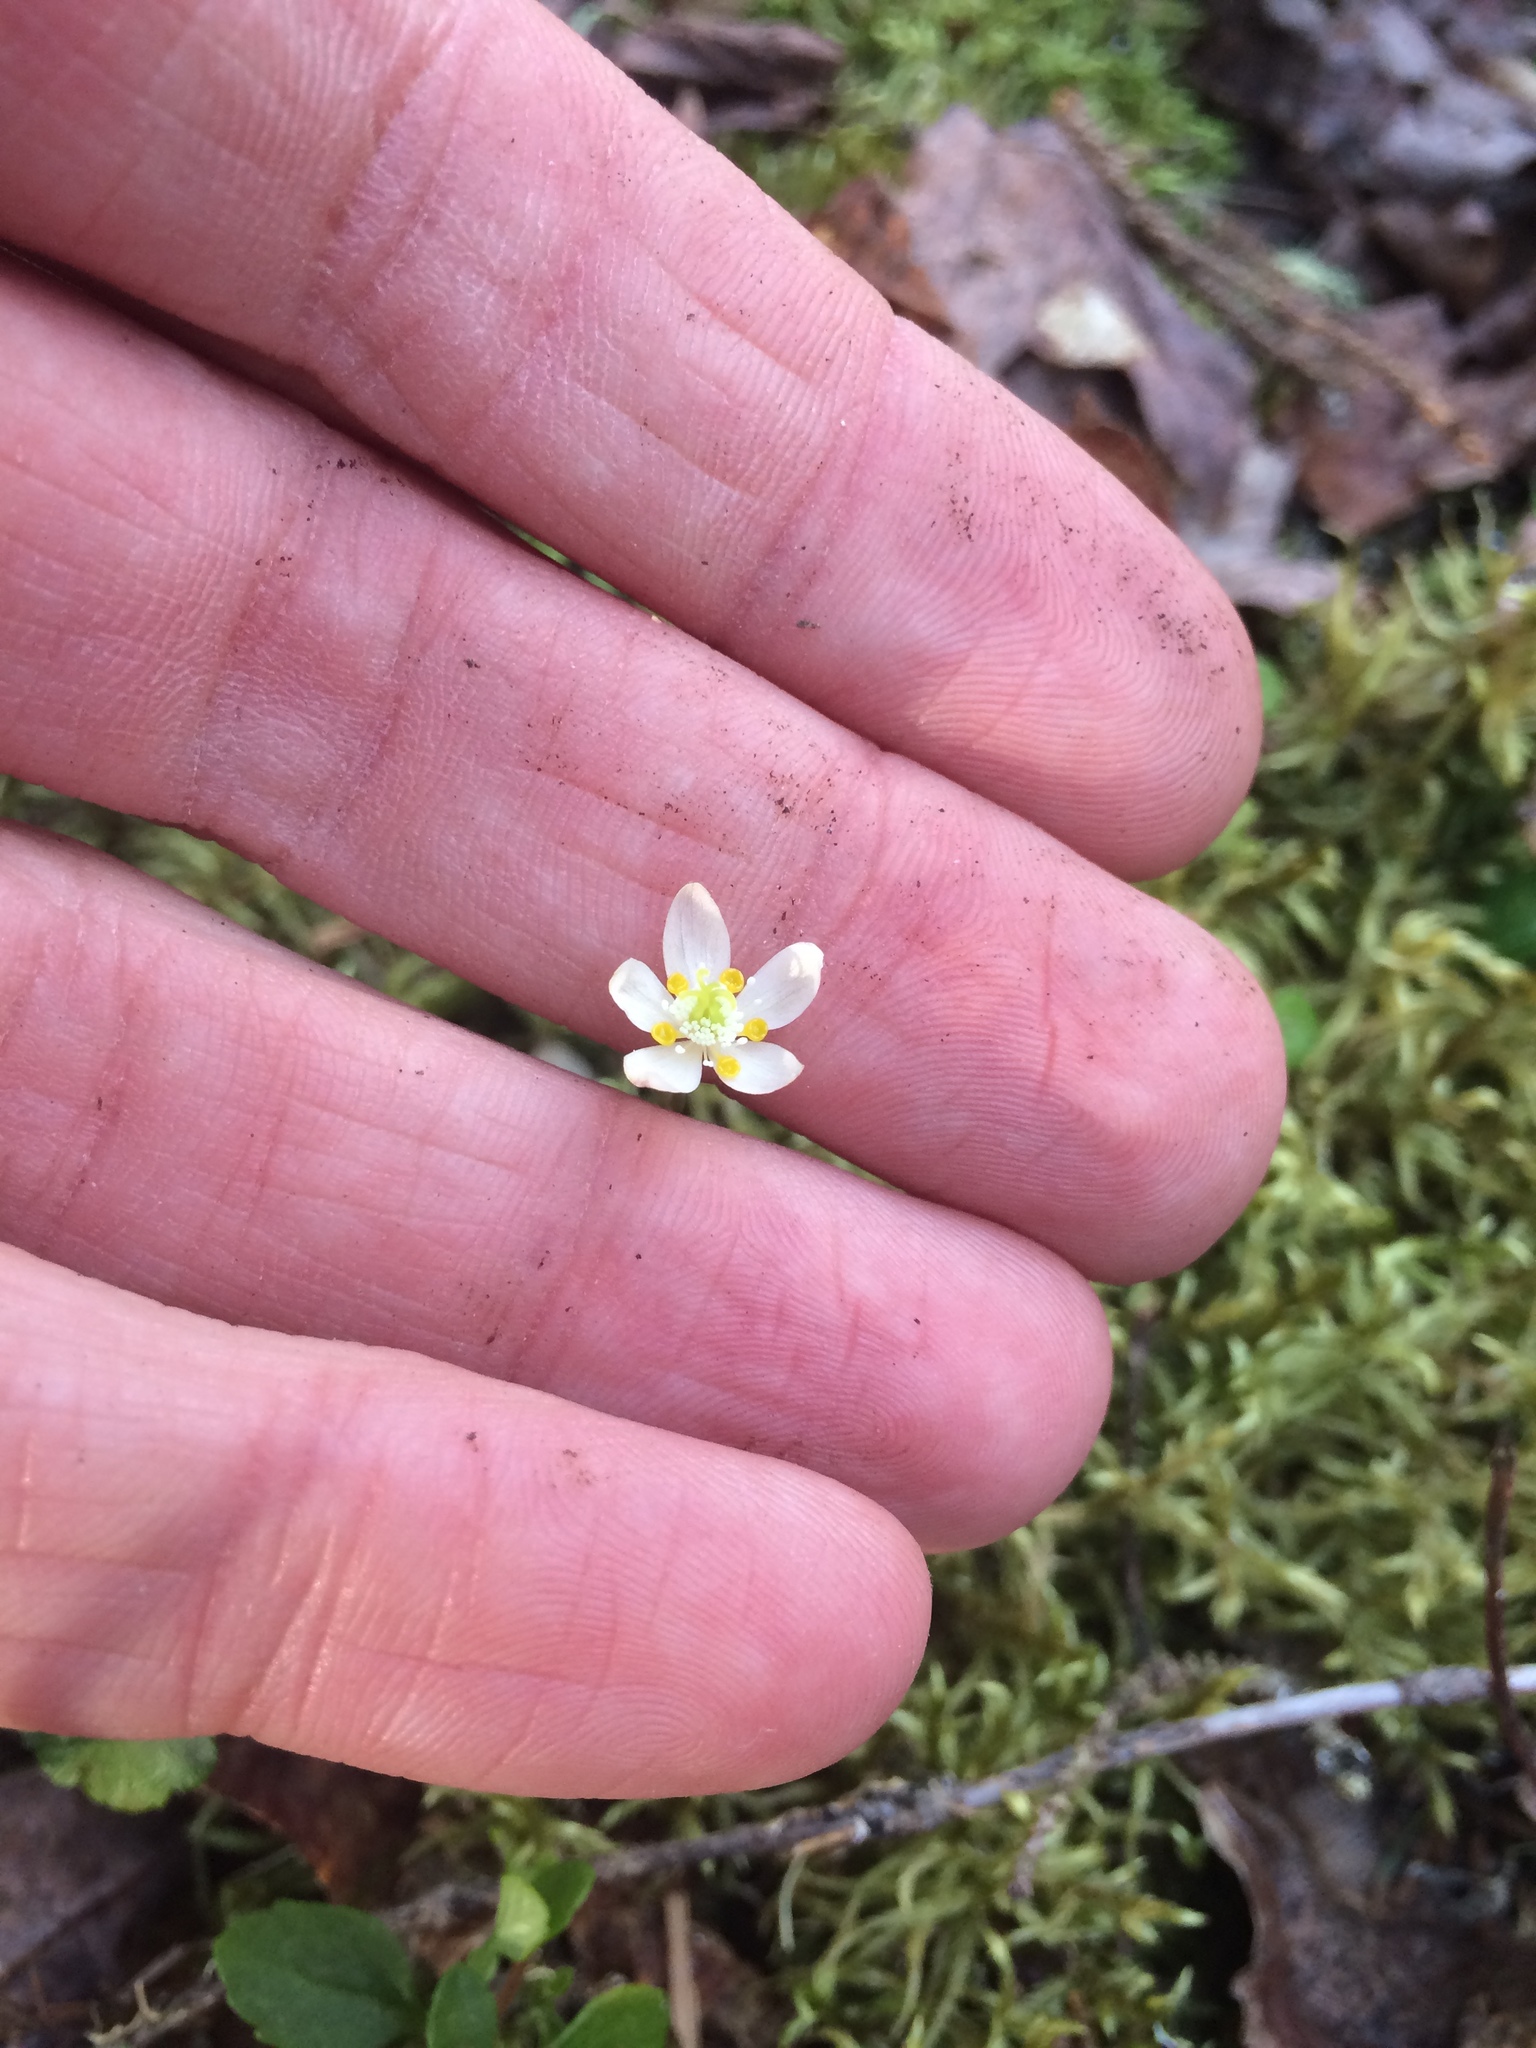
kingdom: Plantae
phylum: Tracheophyta
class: Magnoliopsida
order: Ranunculales
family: Ranunculaceae
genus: Coptis
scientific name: Coptis trifolia
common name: Canker-root
